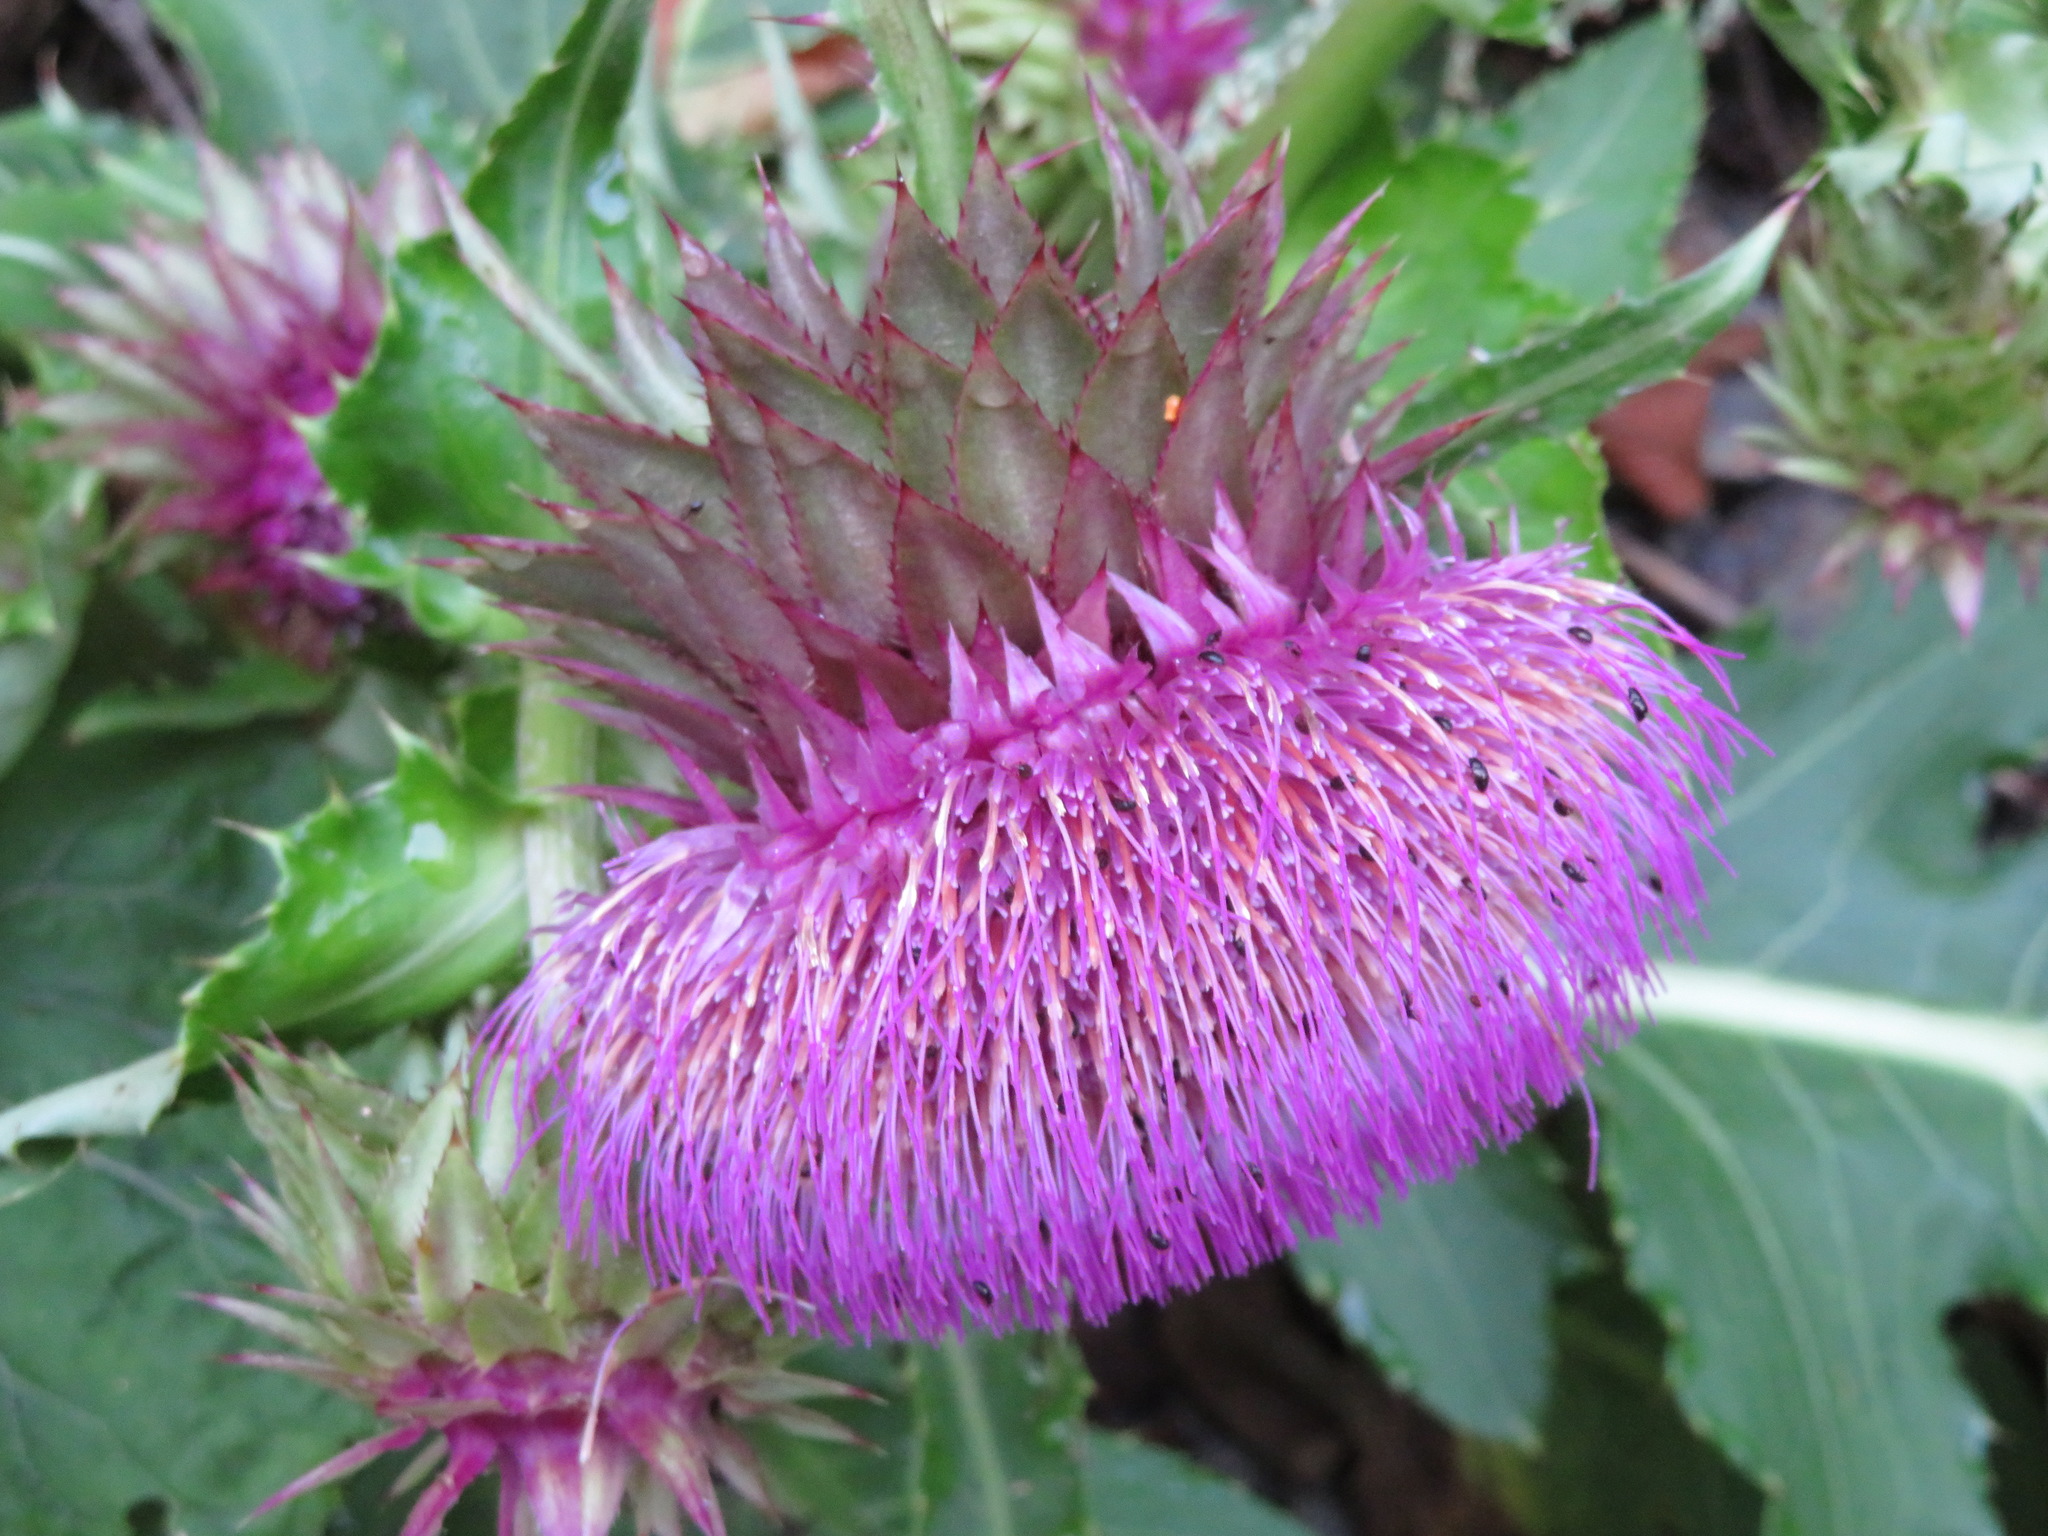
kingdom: Plantae
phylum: Tracheophyta
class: Magnoliopsida
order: Asterales
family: Asteraceae
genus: Cirsium
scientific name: Cirsium purpuratum
